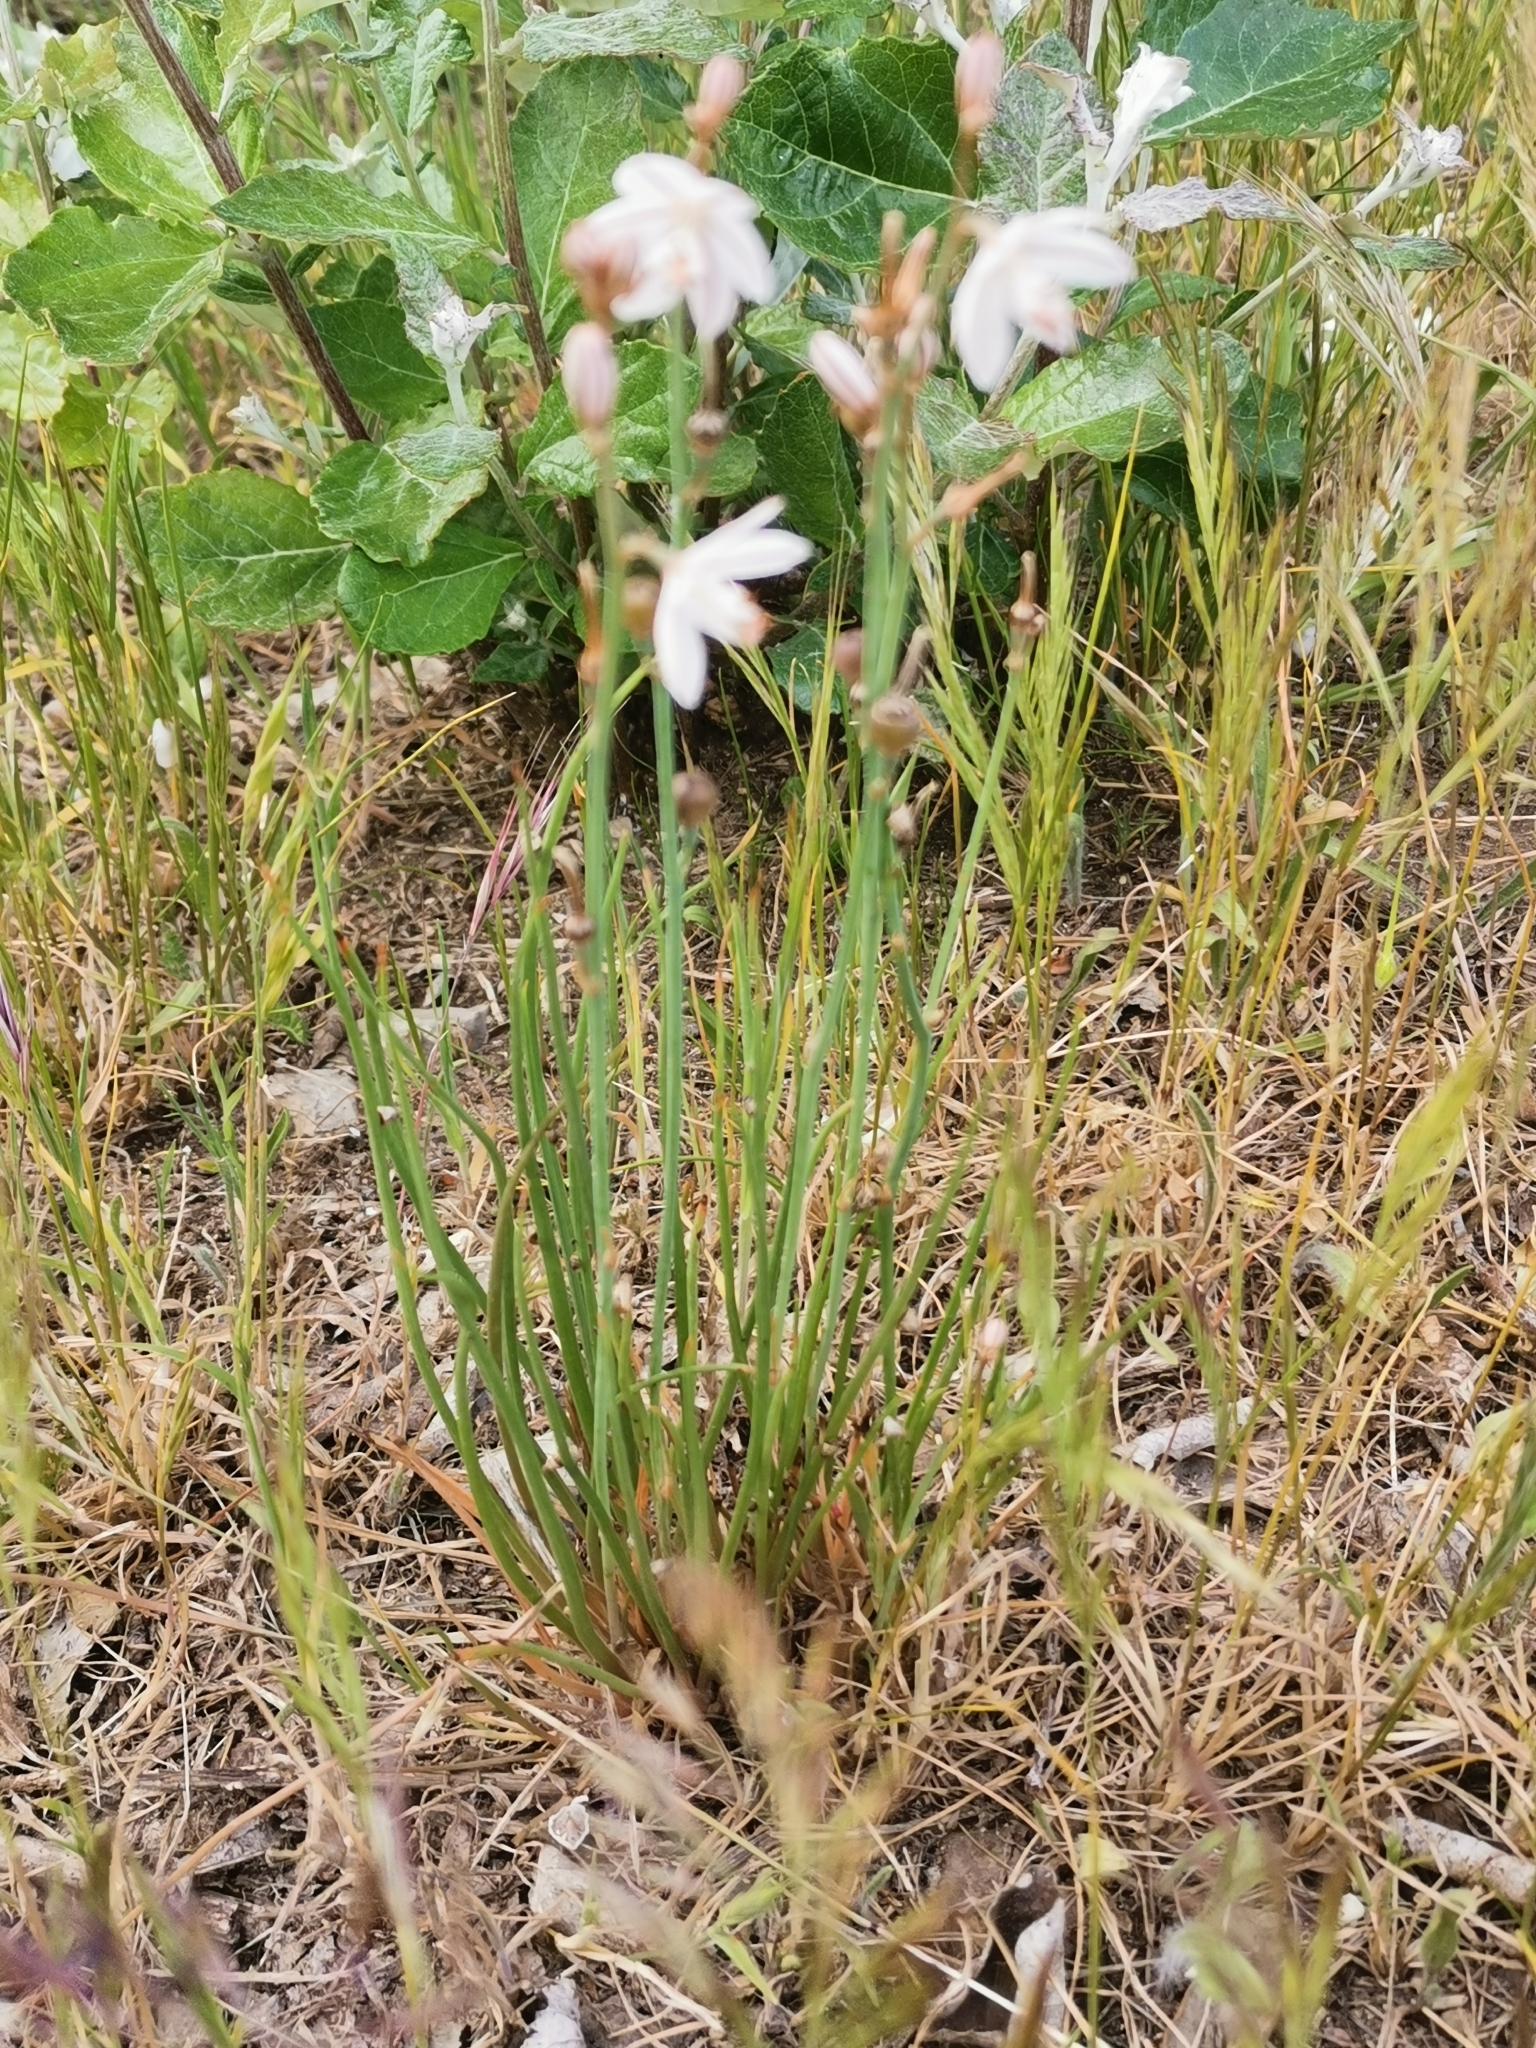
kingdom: Plantae
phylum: Tracheophyta
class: Liliopsida
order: Asparagales
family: Asphodelaceae
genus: Asphodelus
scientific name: Asphodelus fistulosus
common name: Onionweed
